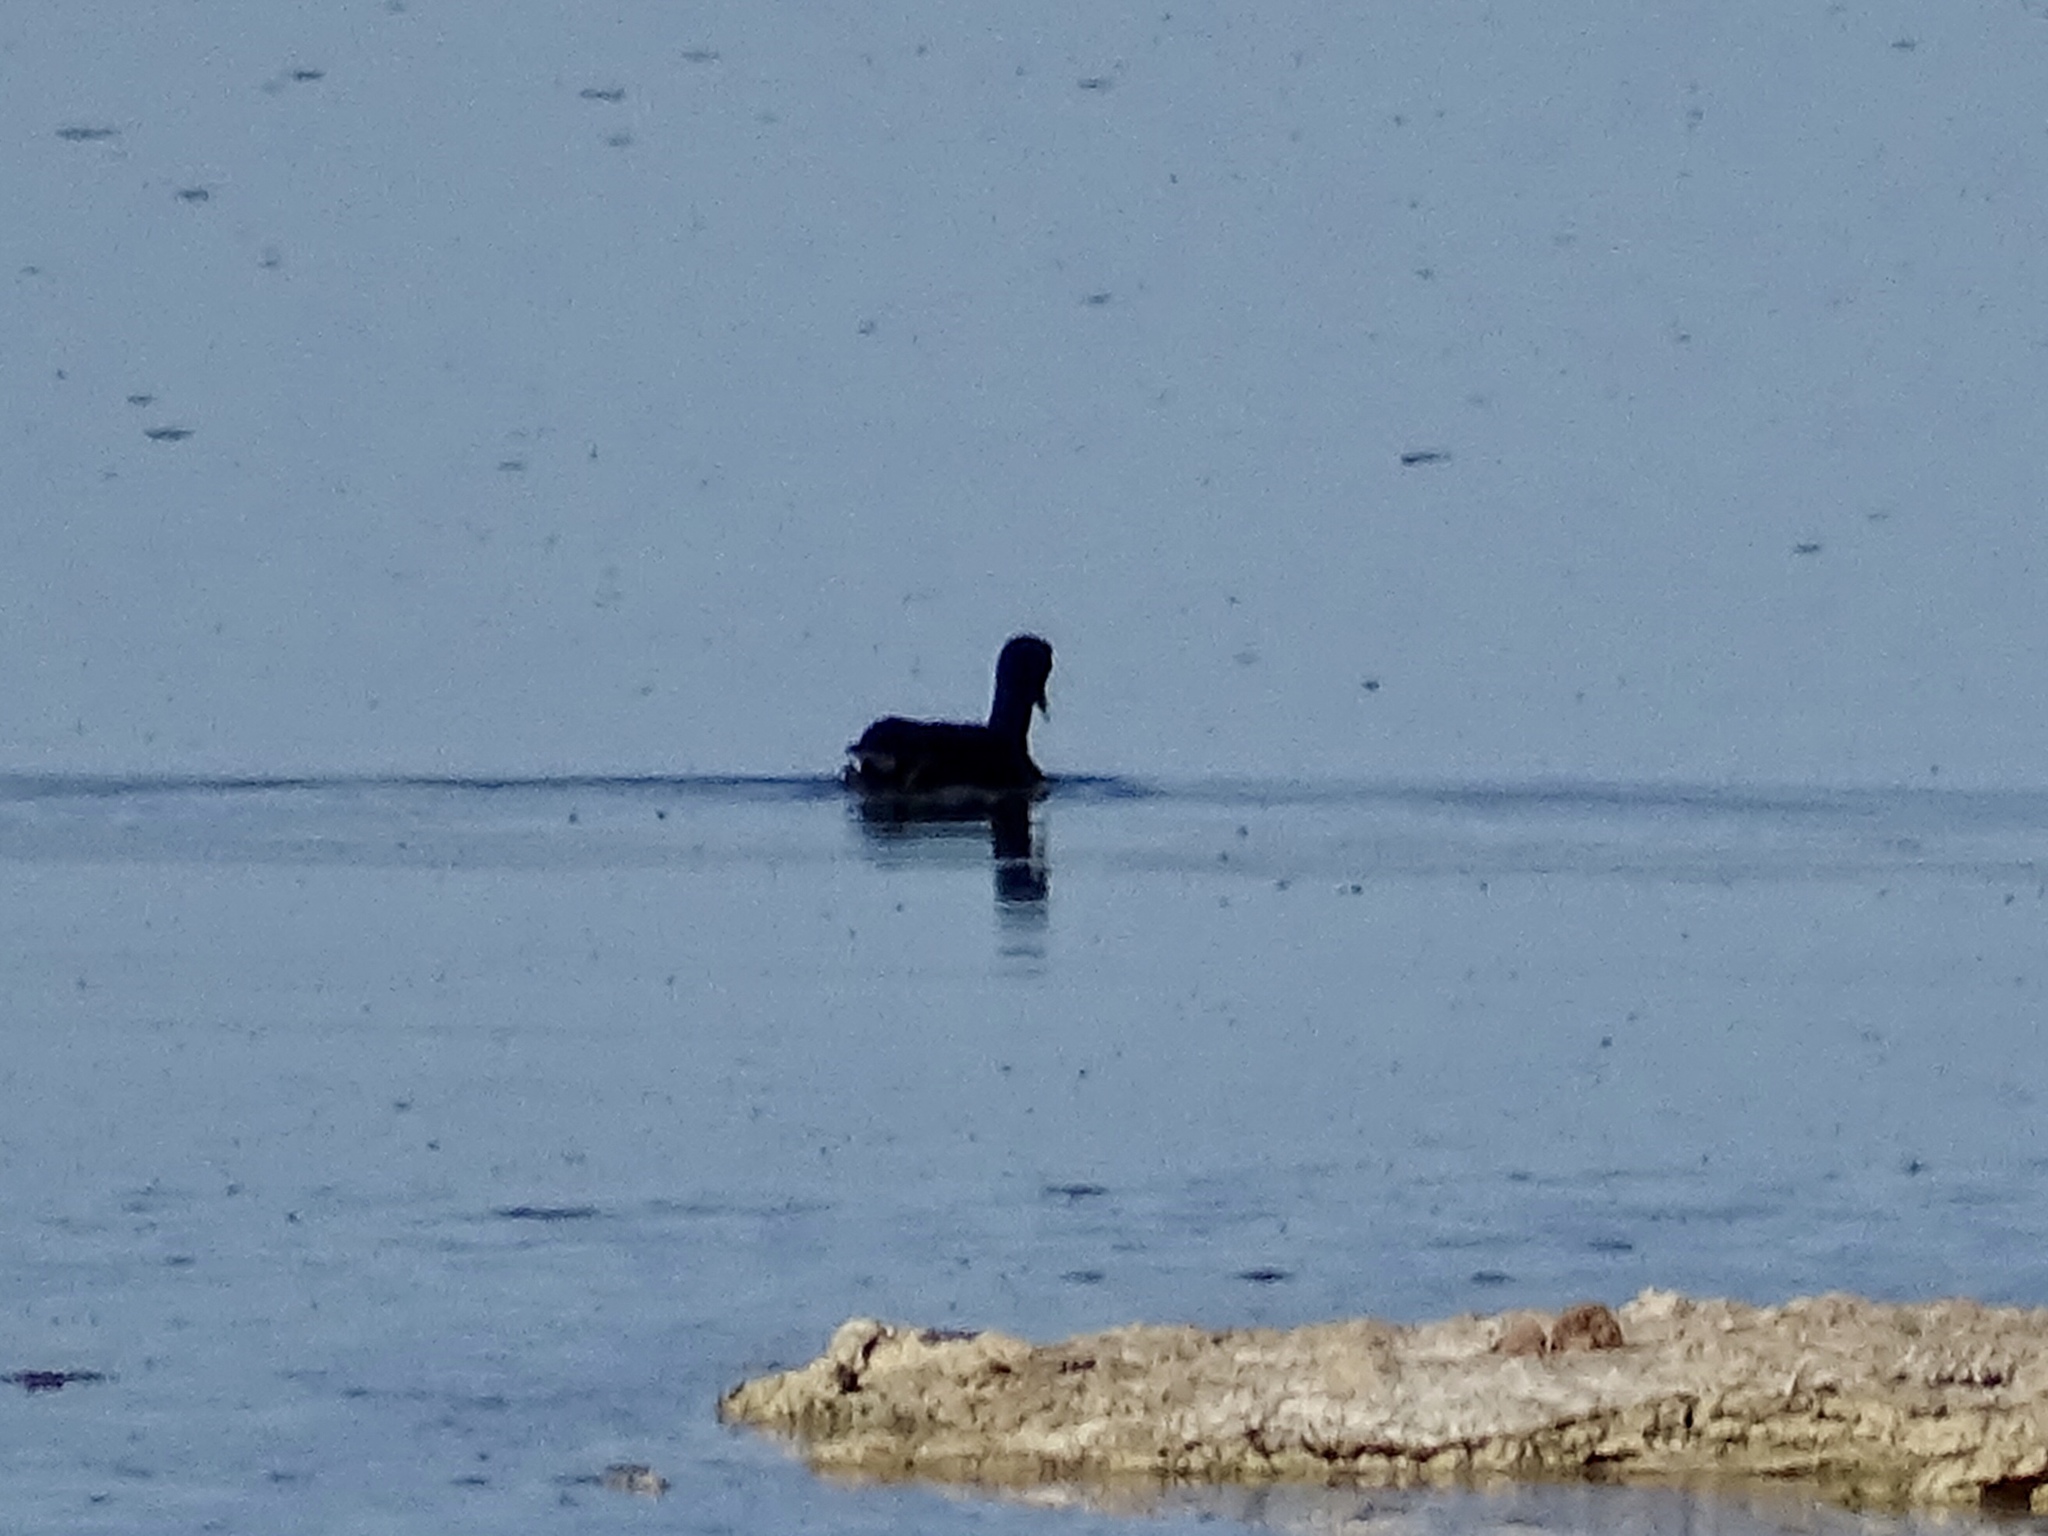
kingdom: Animalia
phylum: Chordata
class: Aves
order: Gruiformes
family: Rallidae
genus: Fulica
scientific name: Fulica americana
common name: American coot
